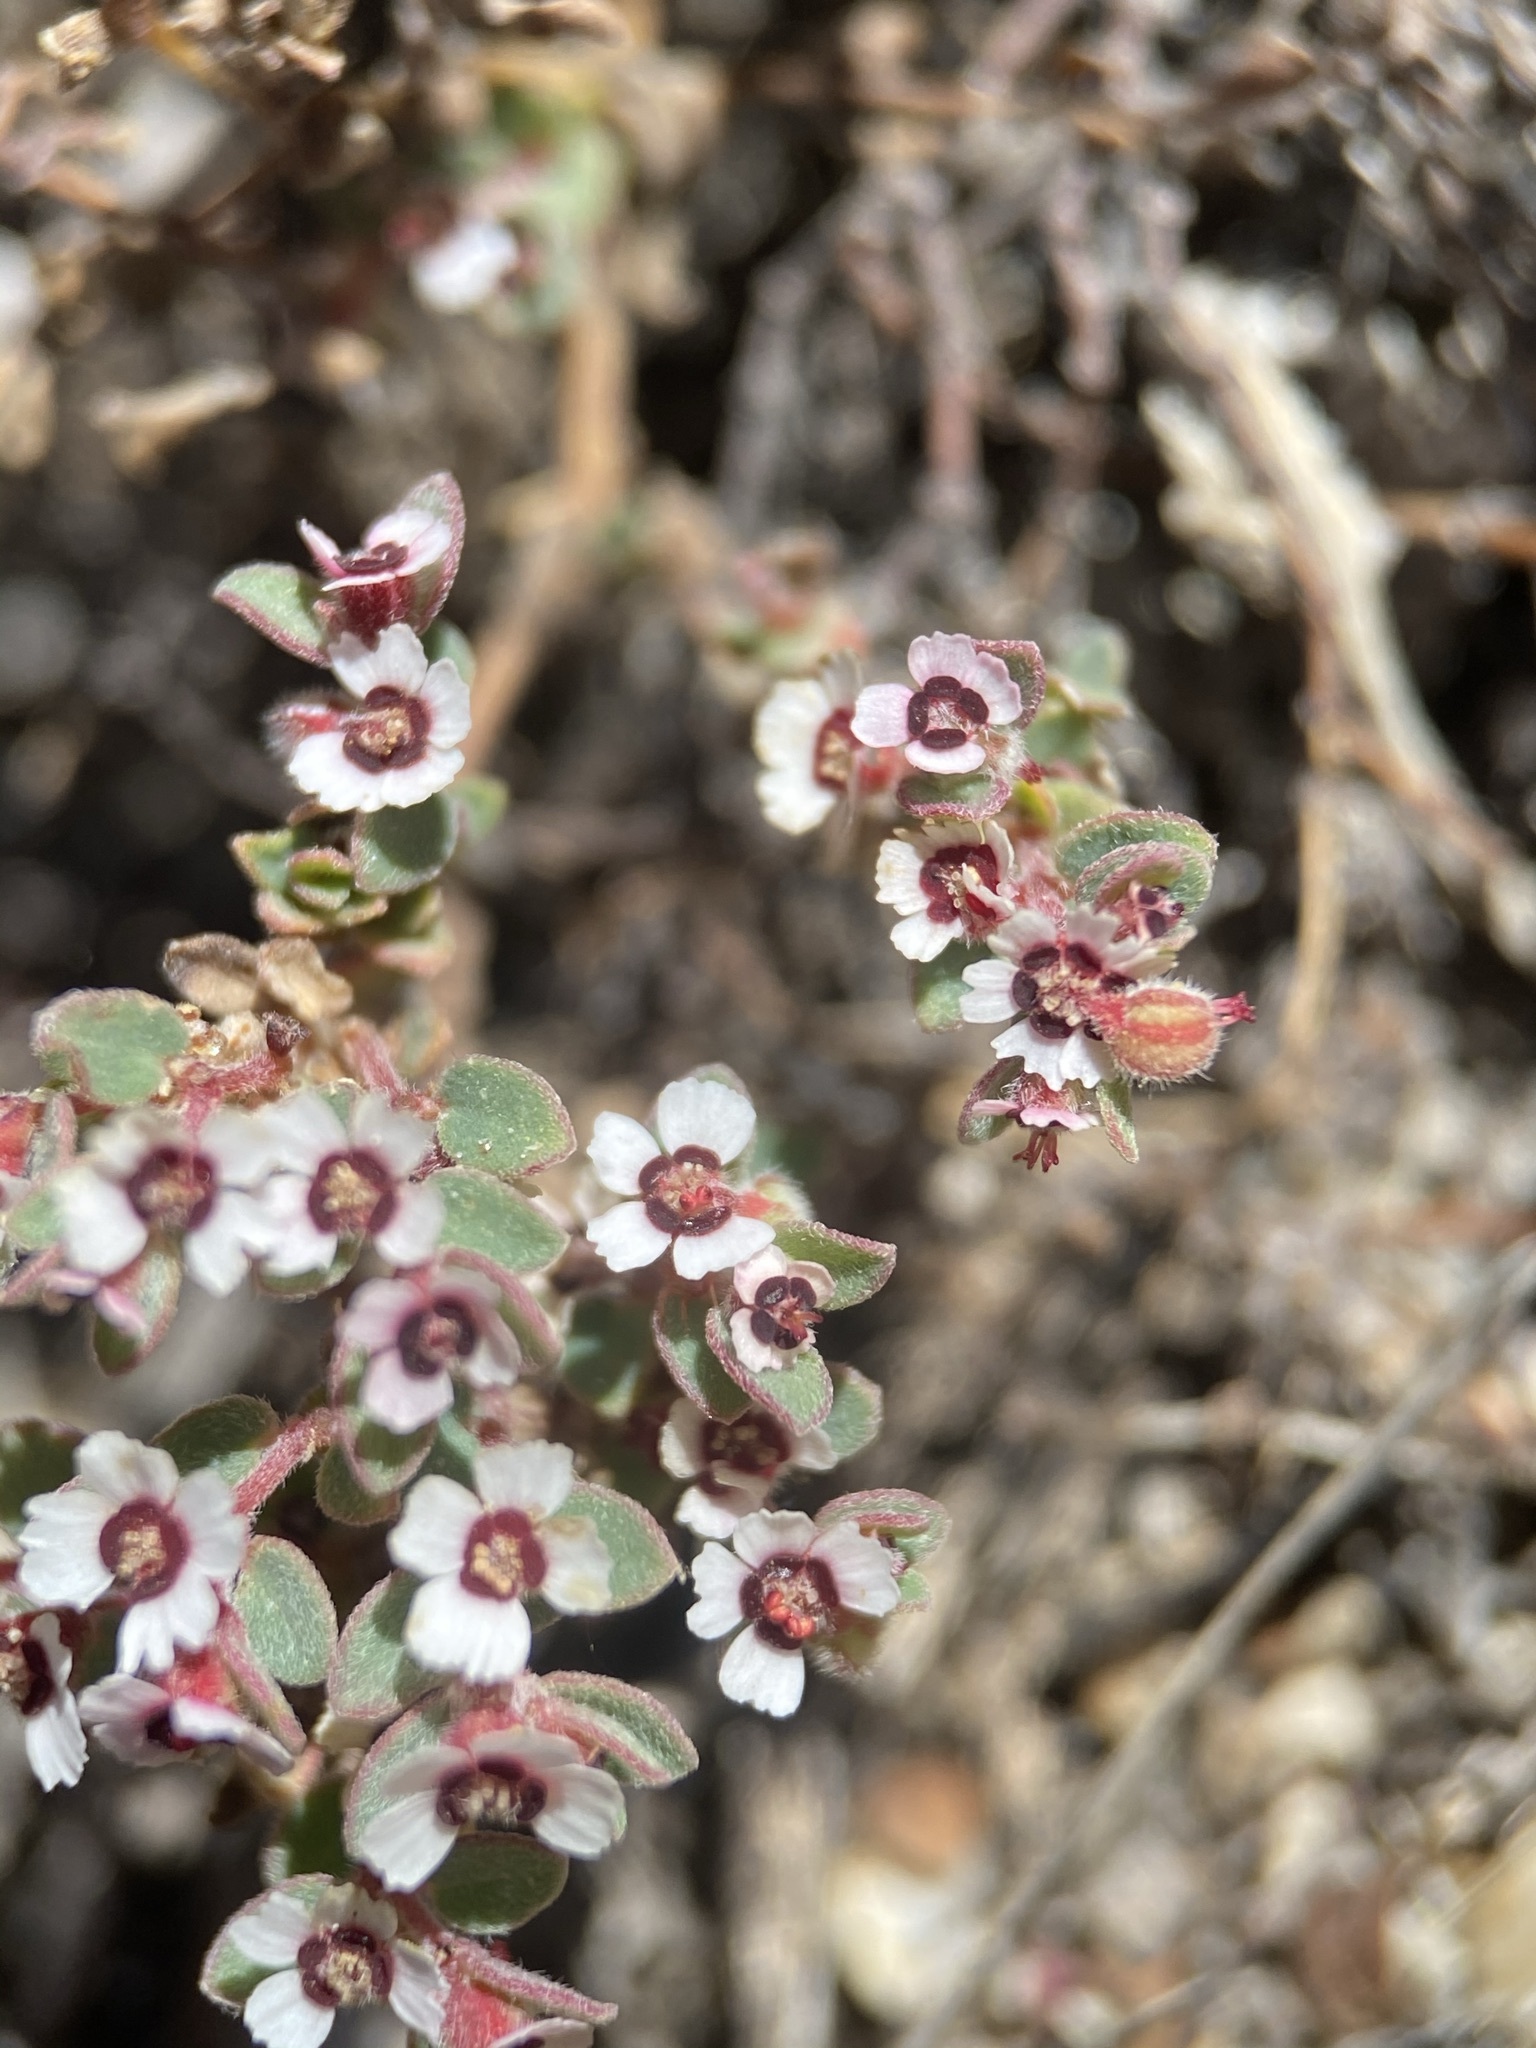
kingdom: Plantae
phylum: Tracheophyta
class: Magnoliopsida
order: Malpighiales
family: Euphorbiaceae
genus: Euphorbia
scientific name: Euphorbia melanadenia
